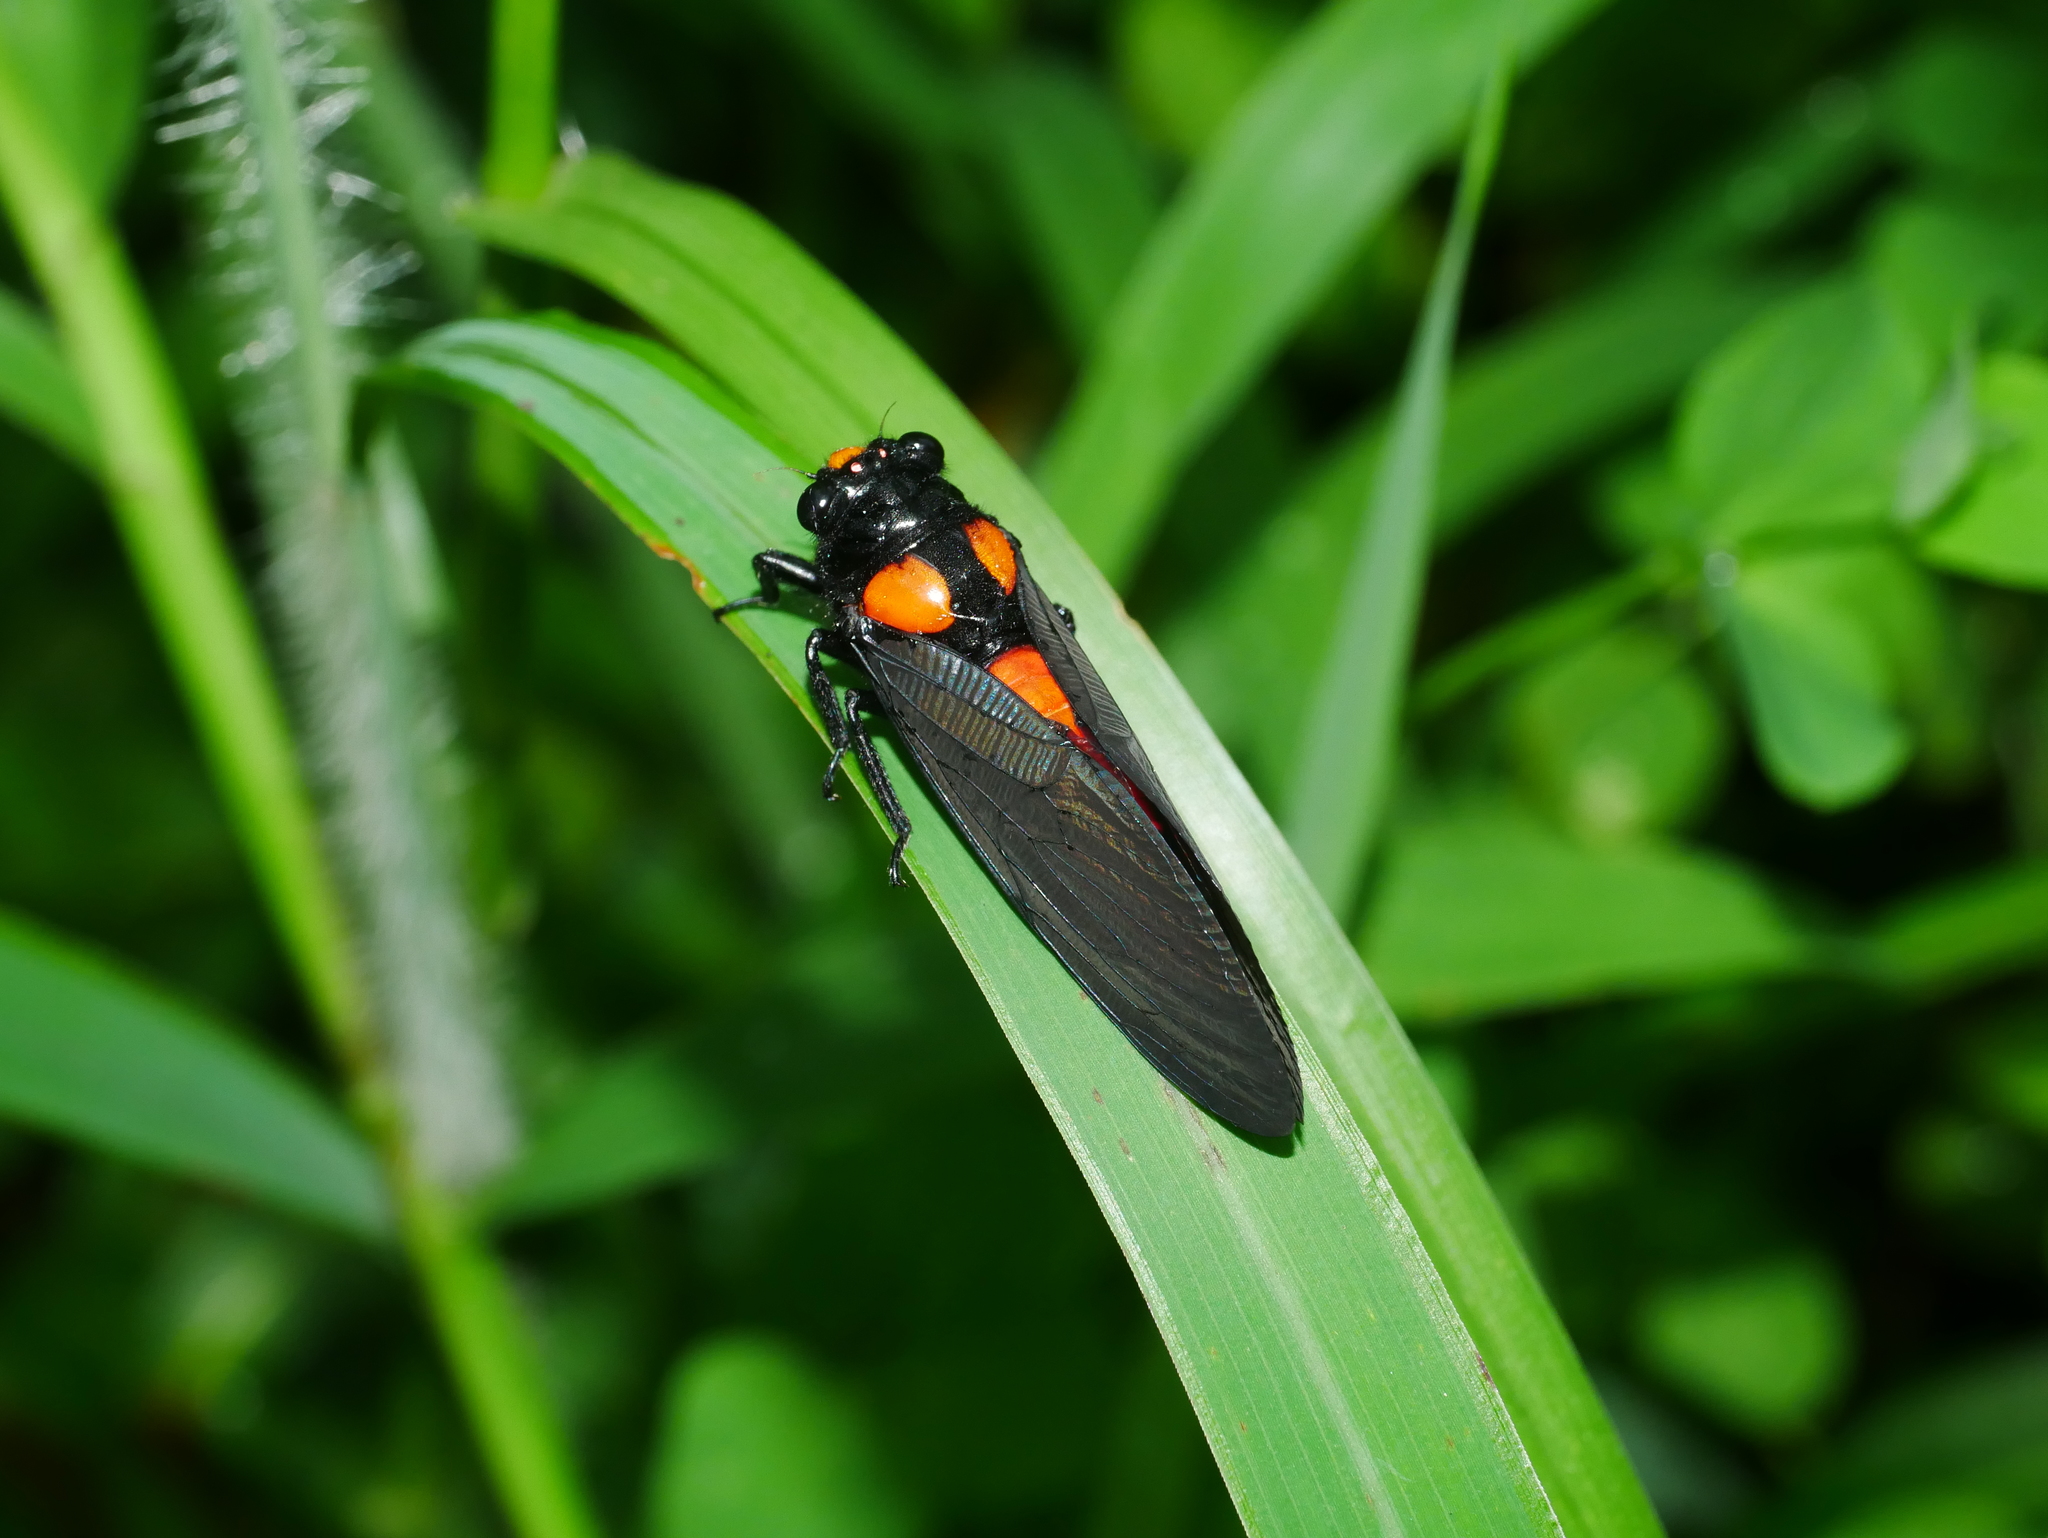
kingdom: Animalia
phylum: Arthropoda
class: Insecta
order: Hemiptera
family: Cicadidae
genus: Huechys
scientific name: Huechys sanguinea
